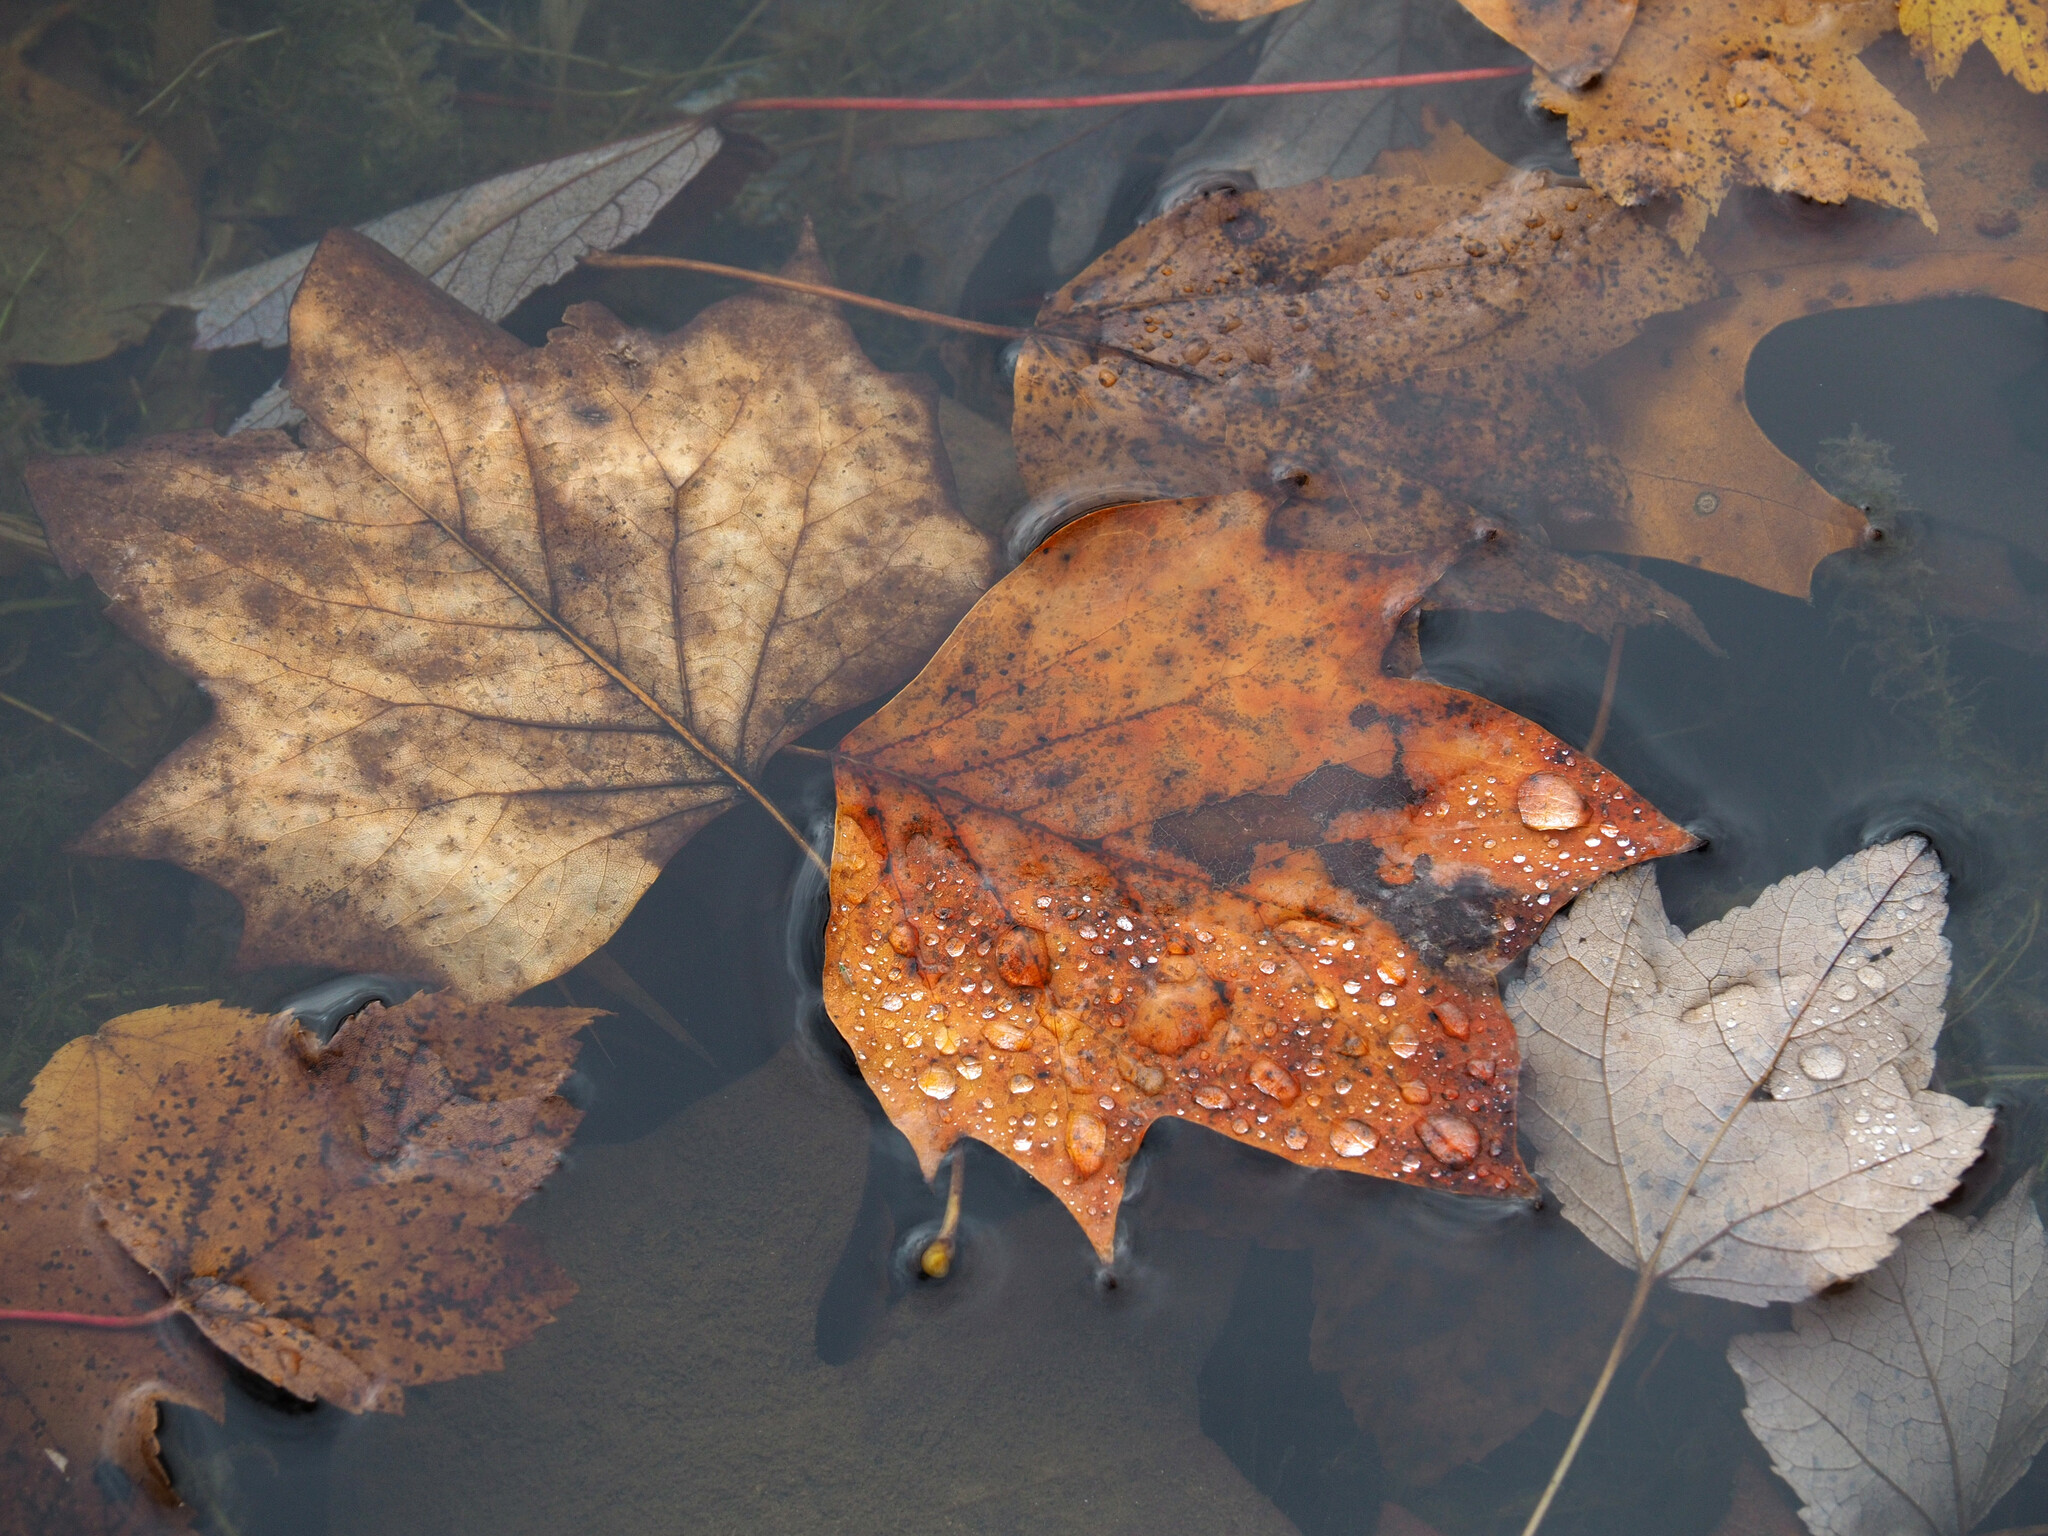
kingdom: Plantae
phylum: Tracheophyta
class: Magnoliopsida
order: Magnoliales
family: Magnoliaceae
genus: Liriodendron
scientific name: Liriodendron tulipifera
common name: Tulip tree
